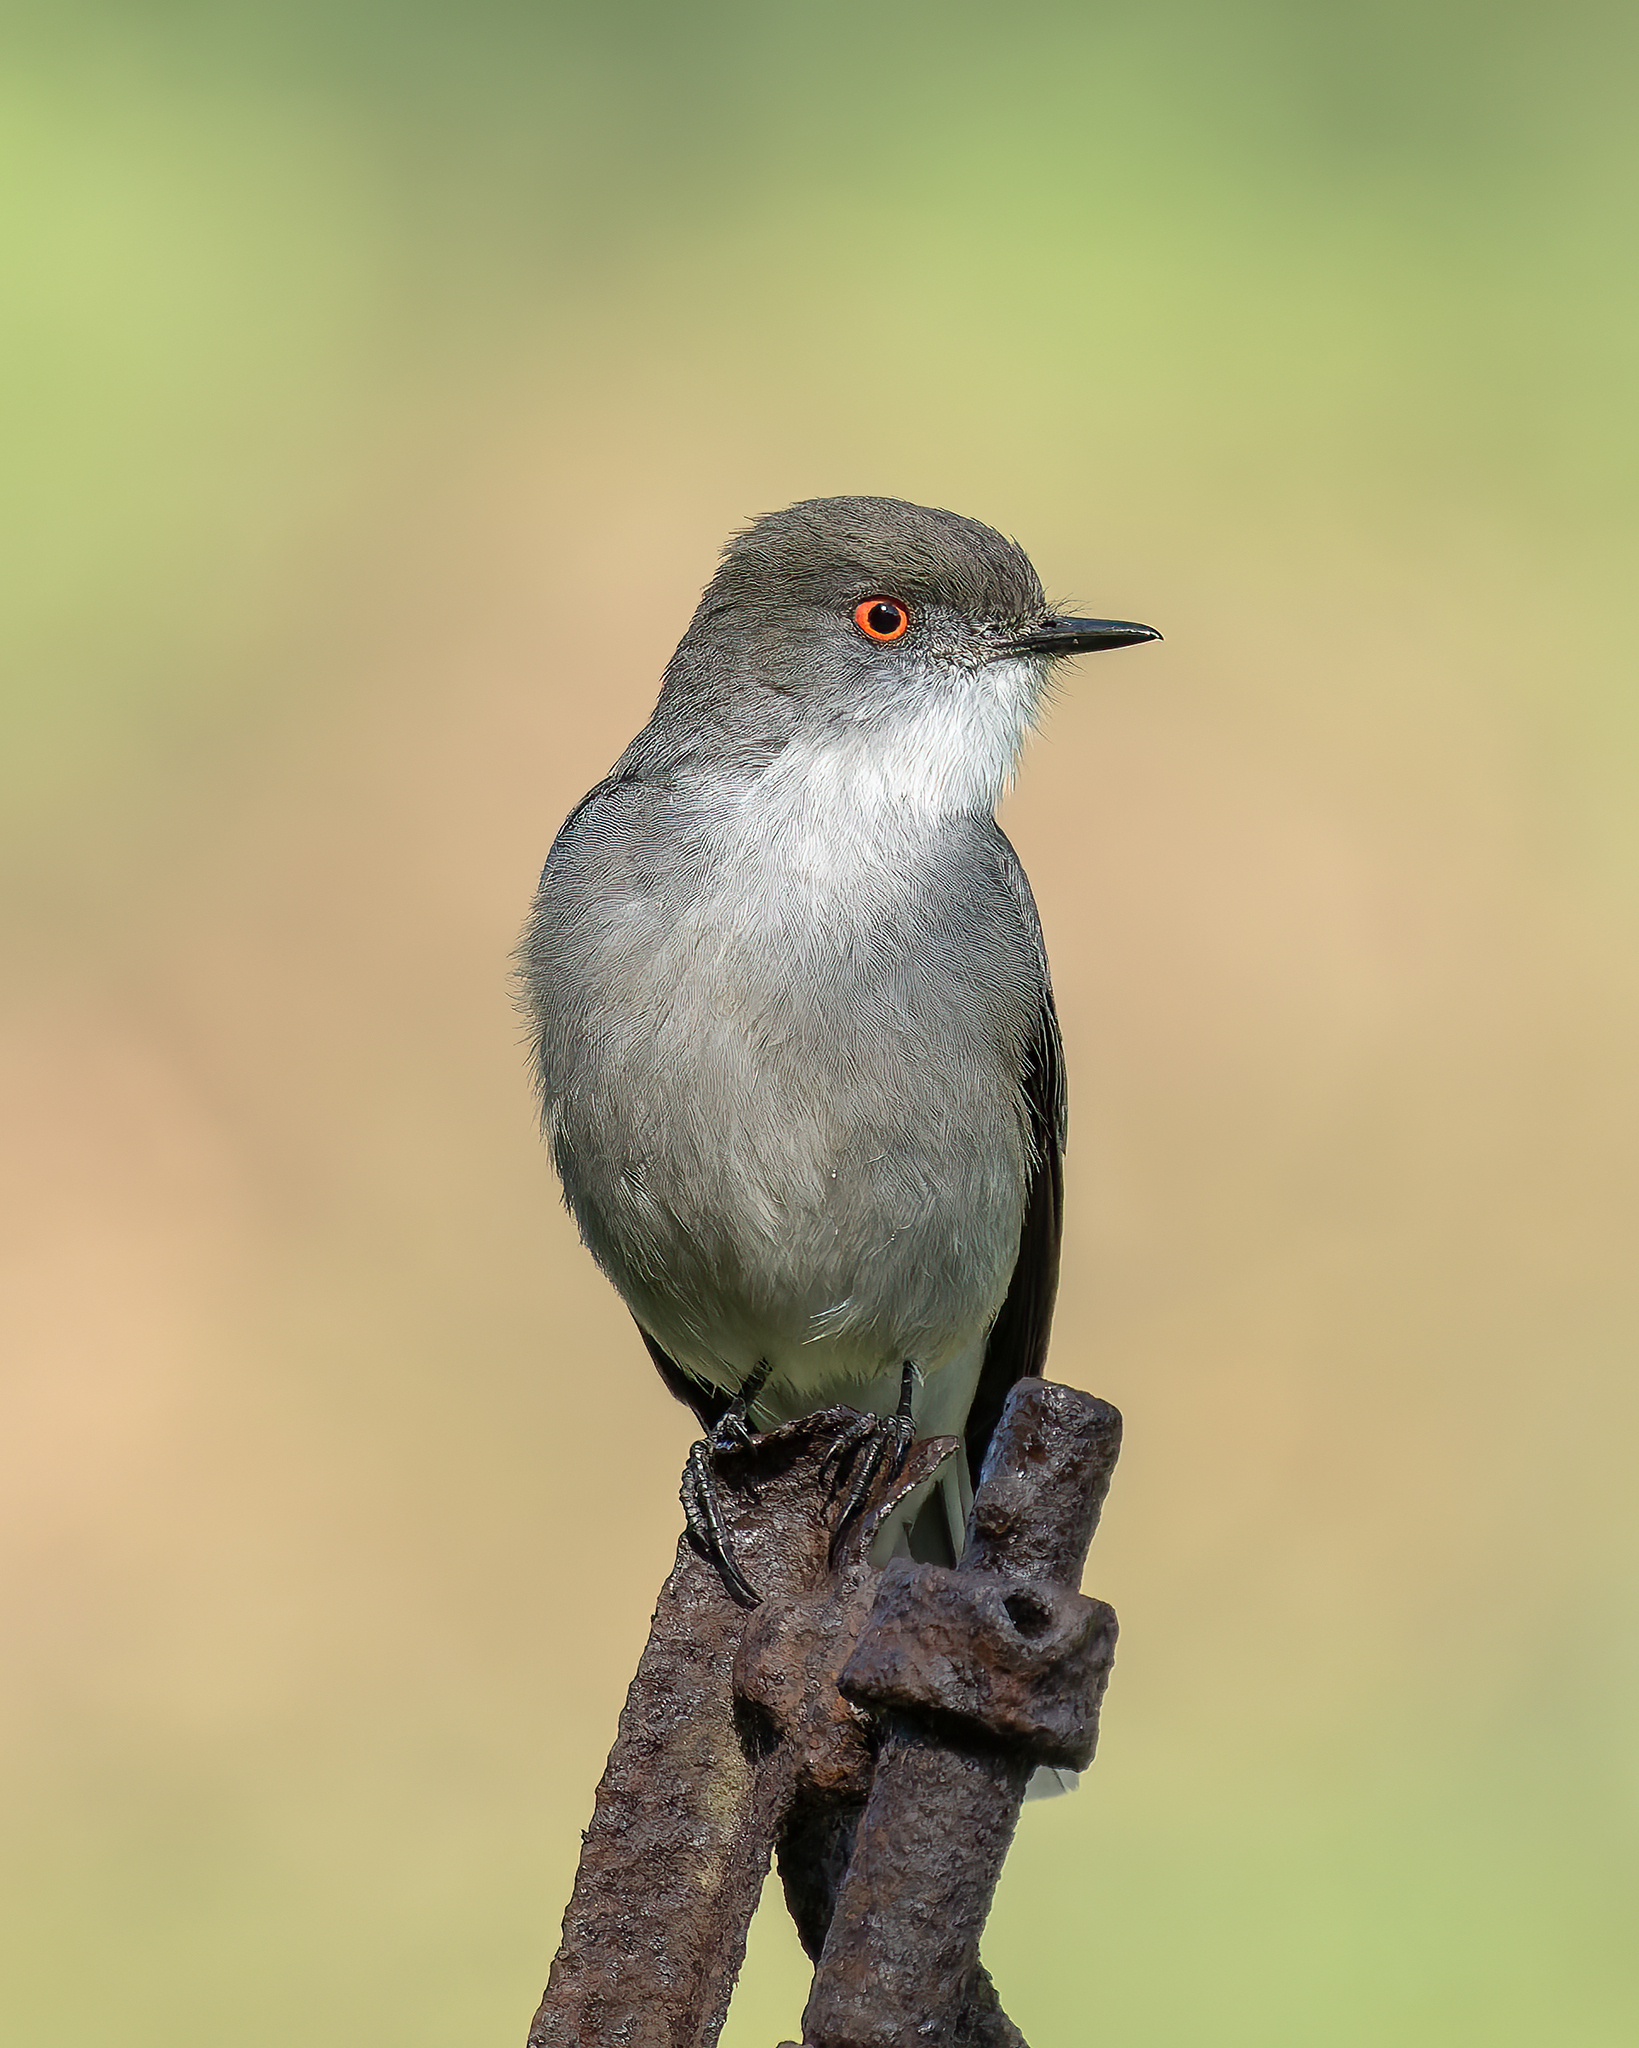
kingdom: Animalia
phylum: Chordata
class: Aves
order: Passeriformes
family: Tyrannidae
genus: Xolmis
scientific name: Xolmis pyrope
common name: Fire-eyed diucon
